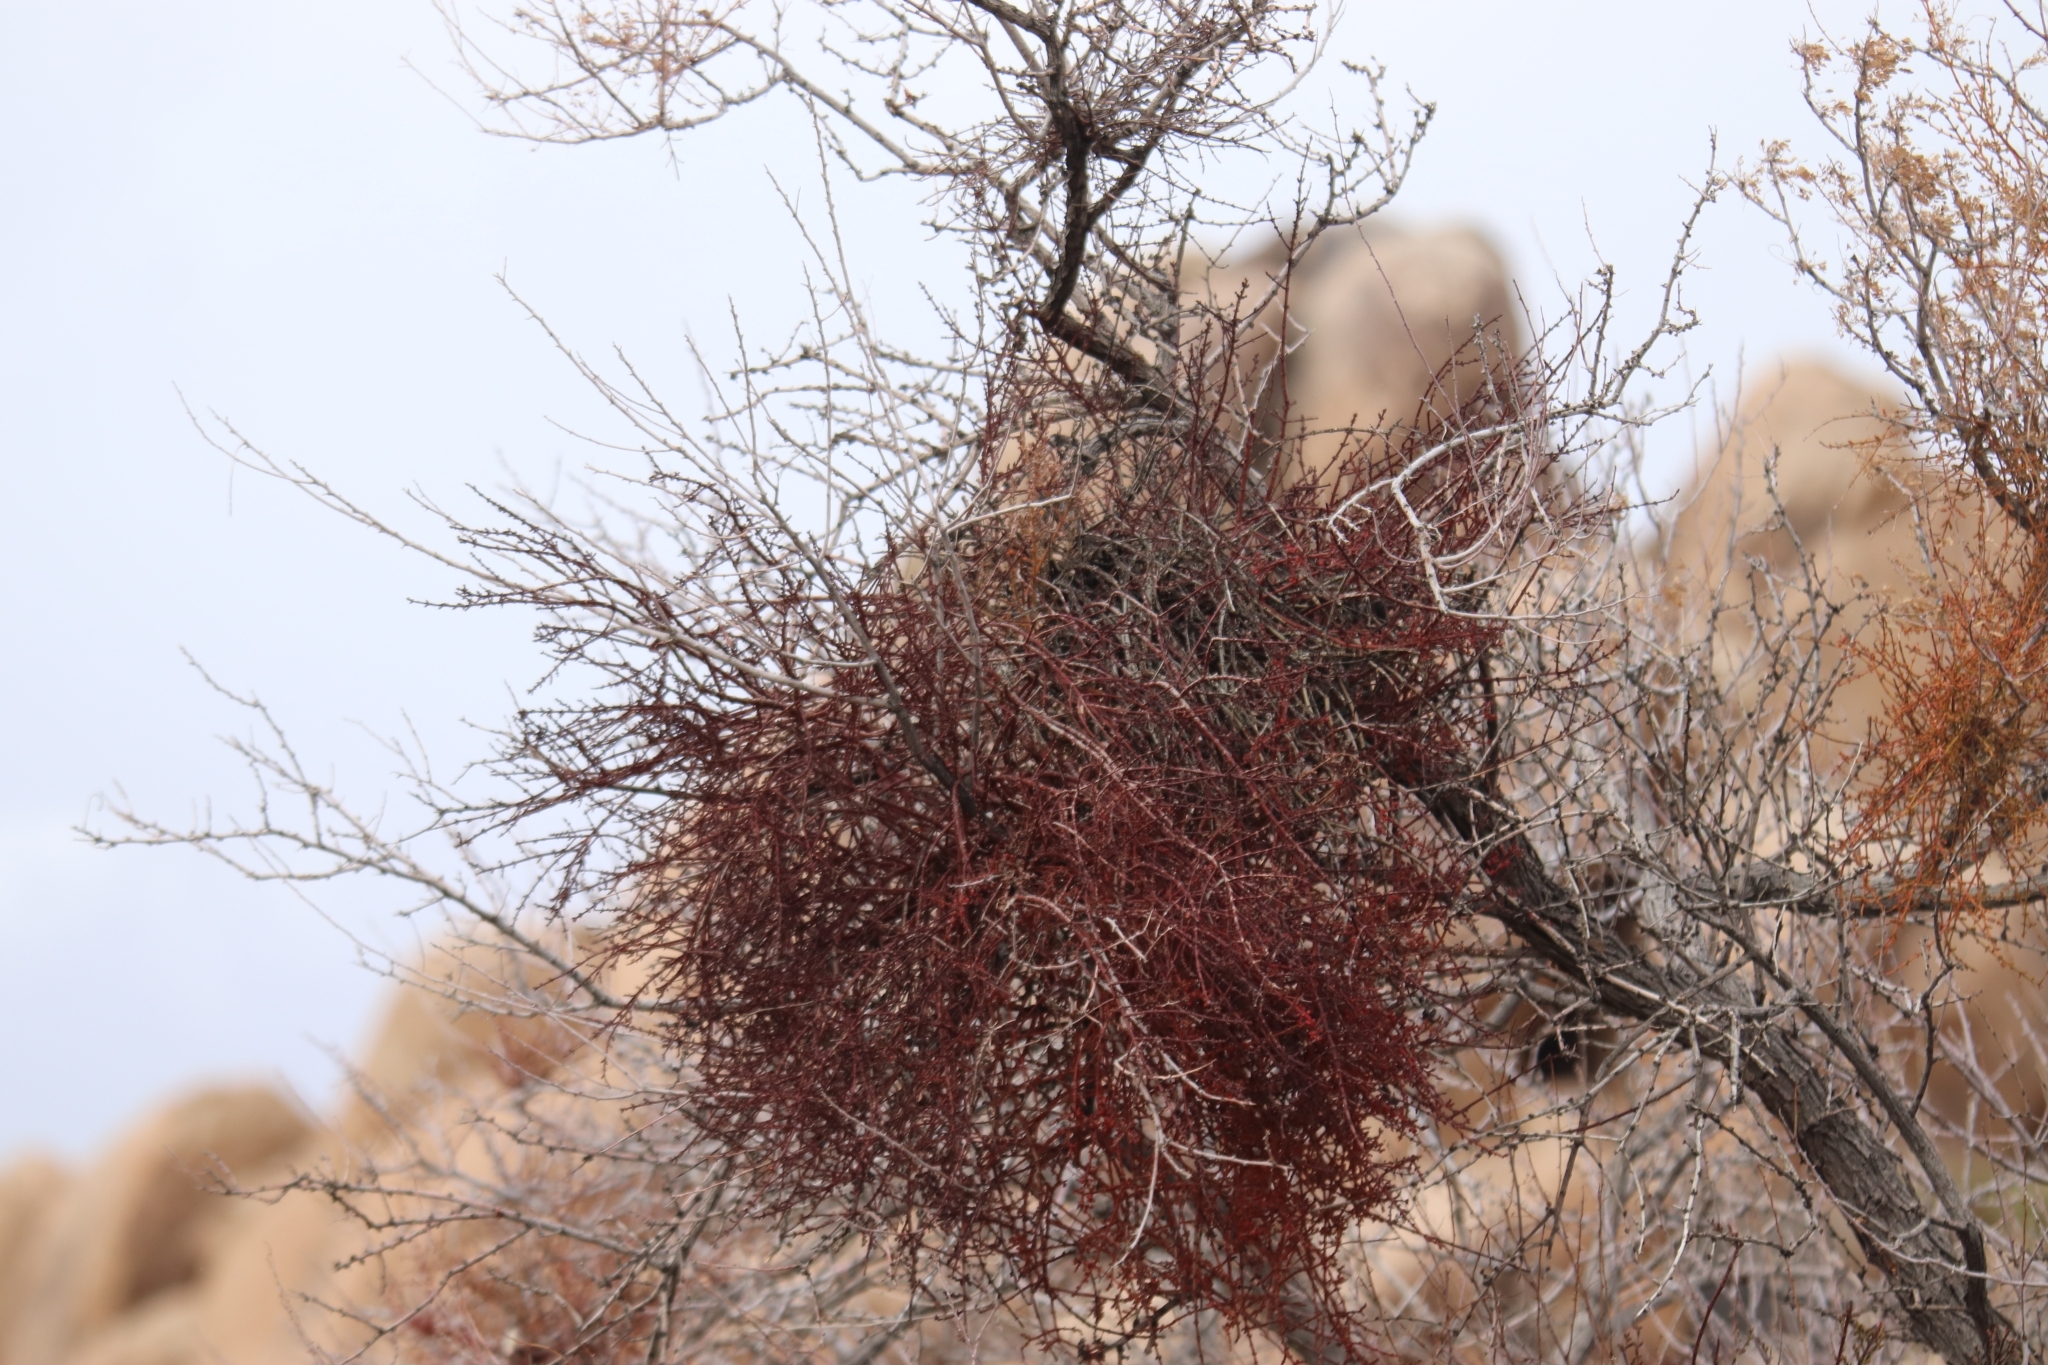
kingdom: Plantae
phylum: Tracheophyta
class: Magnoliopsida
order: Santalales
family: Viscaceae
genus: Phoradendron
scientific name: Phoradendron californicum
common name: Acacia mistletoe
